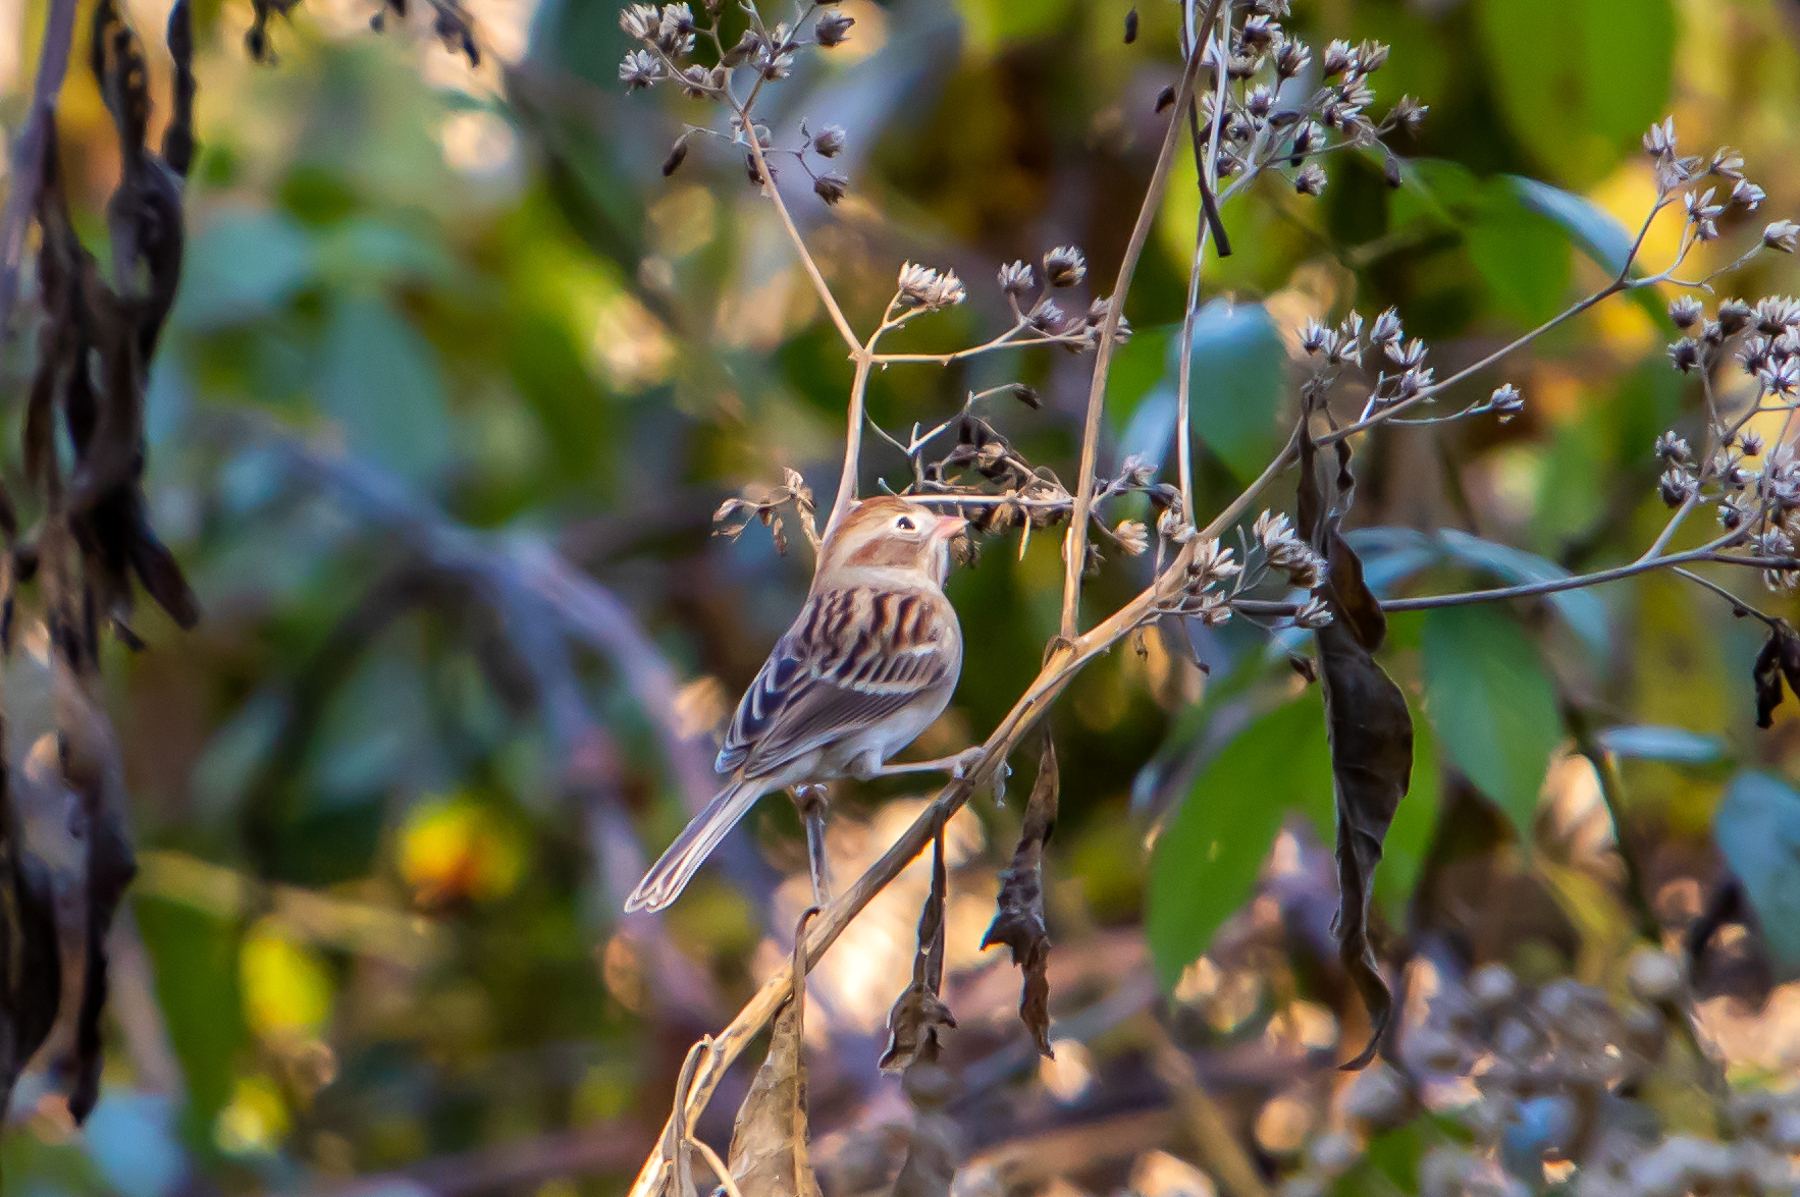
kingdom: Animalia
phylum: Chordata
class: Aves
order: Passeriformes
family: Passerellidae
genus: Spizella
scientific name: Spizella pusilla
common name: Field sparrow
